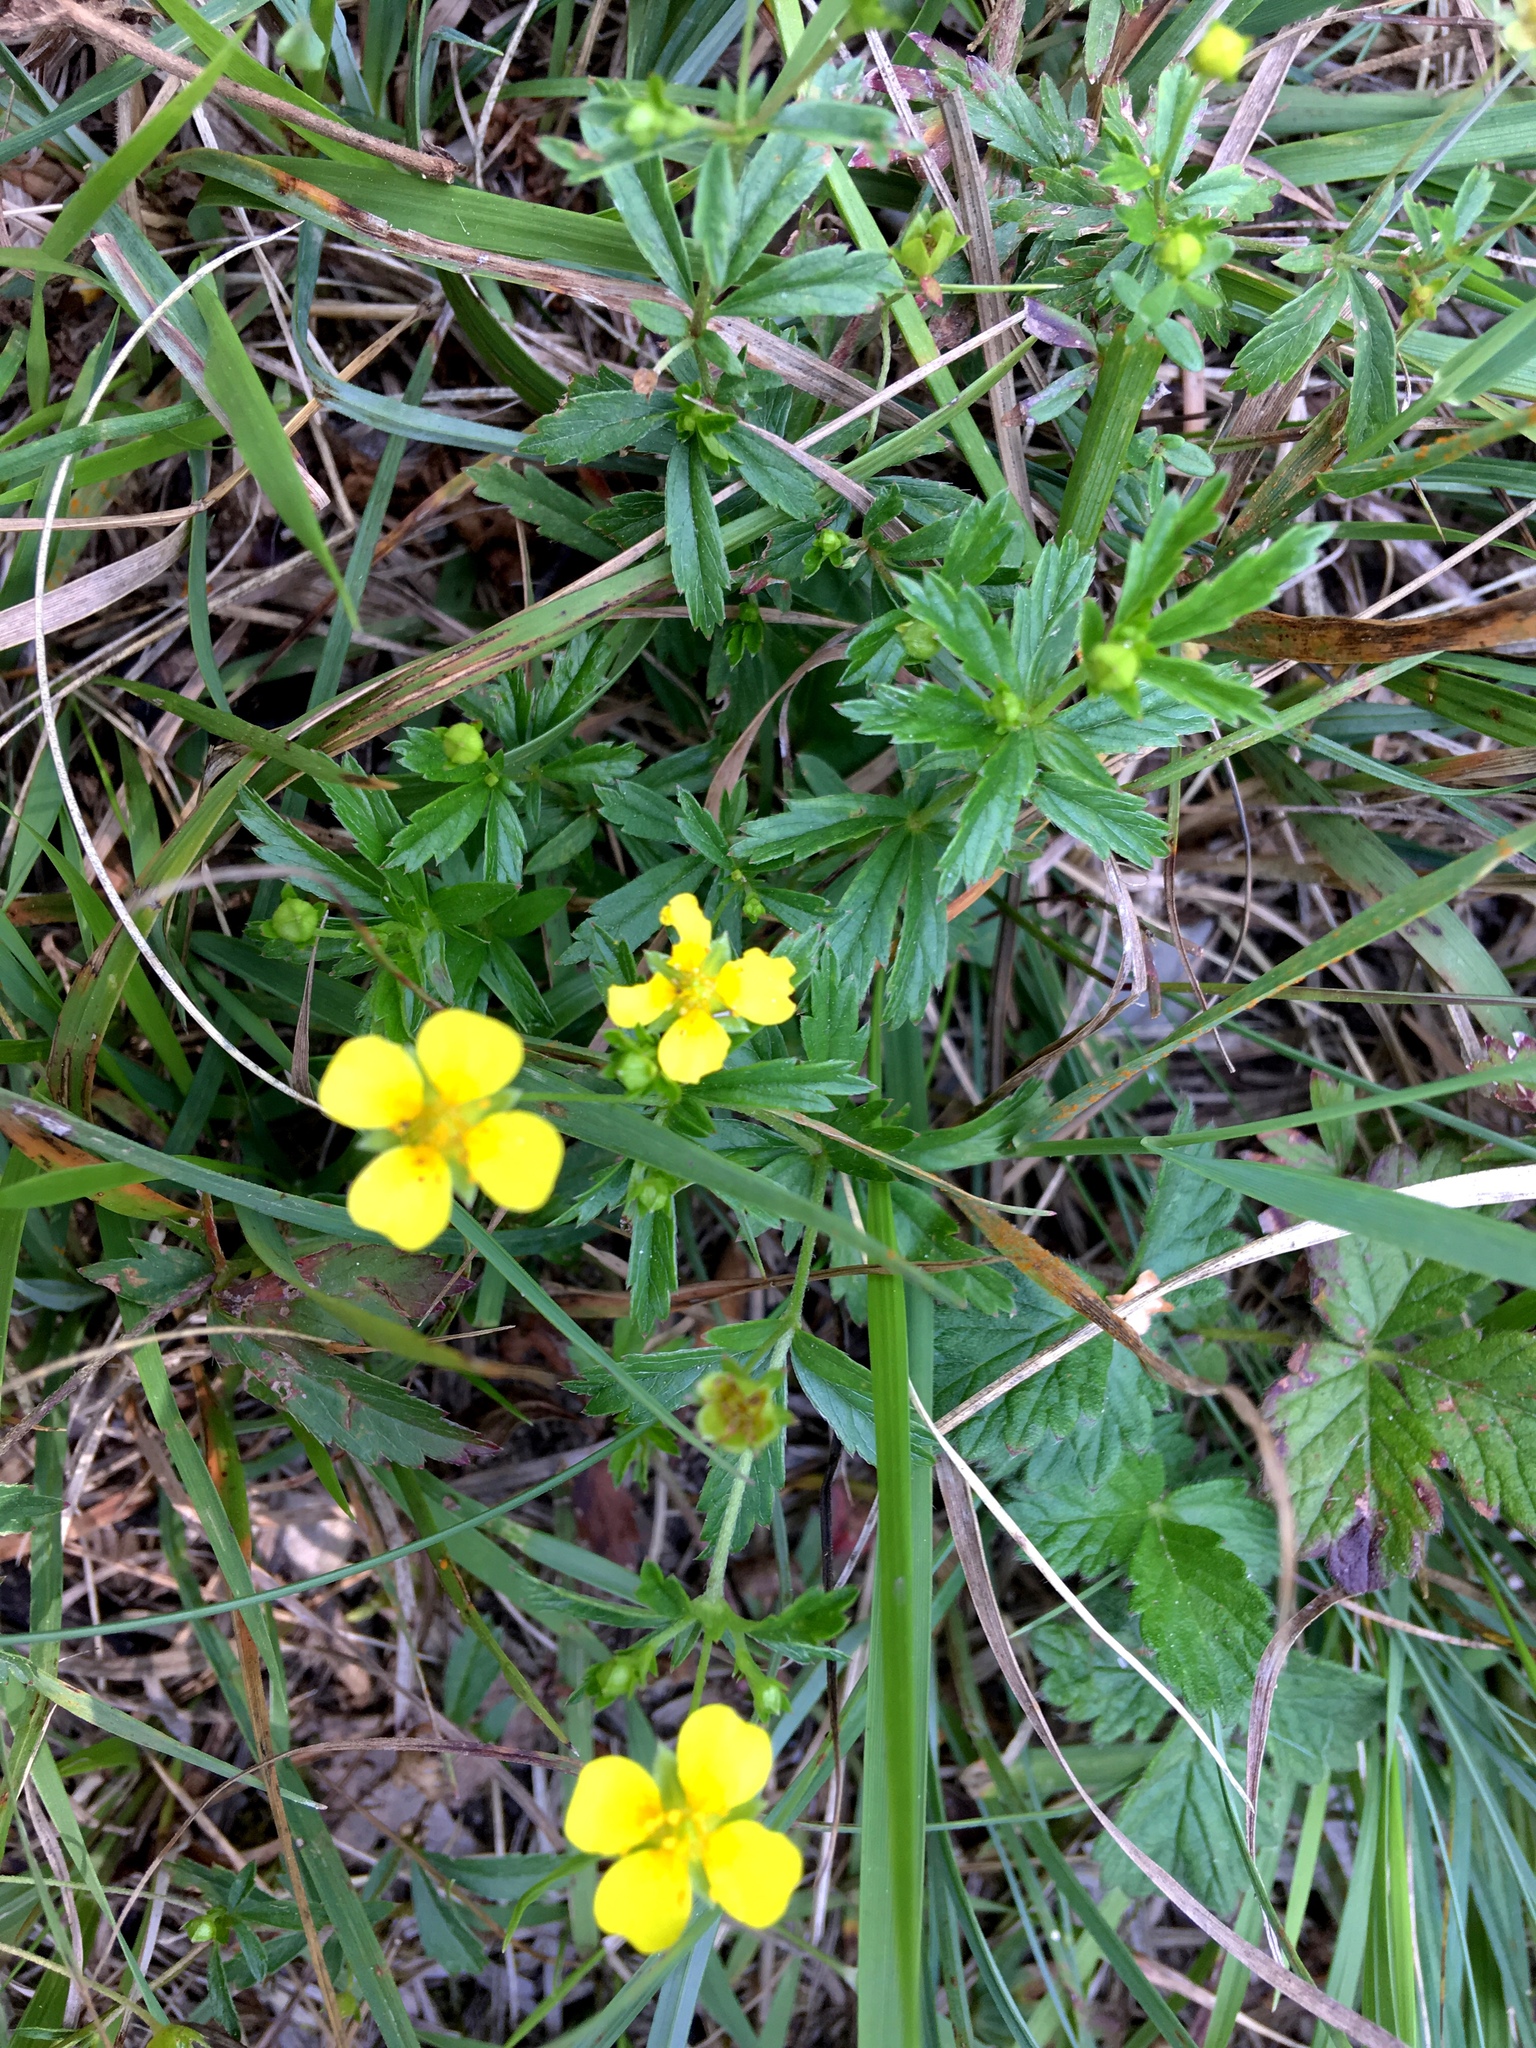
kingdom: Plantae
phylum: Tracheophyta
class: Magnoliopsida
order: Rosales
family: Rosaceae
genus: Potentilla
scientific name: Potentilla erecta
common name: Tormentil
